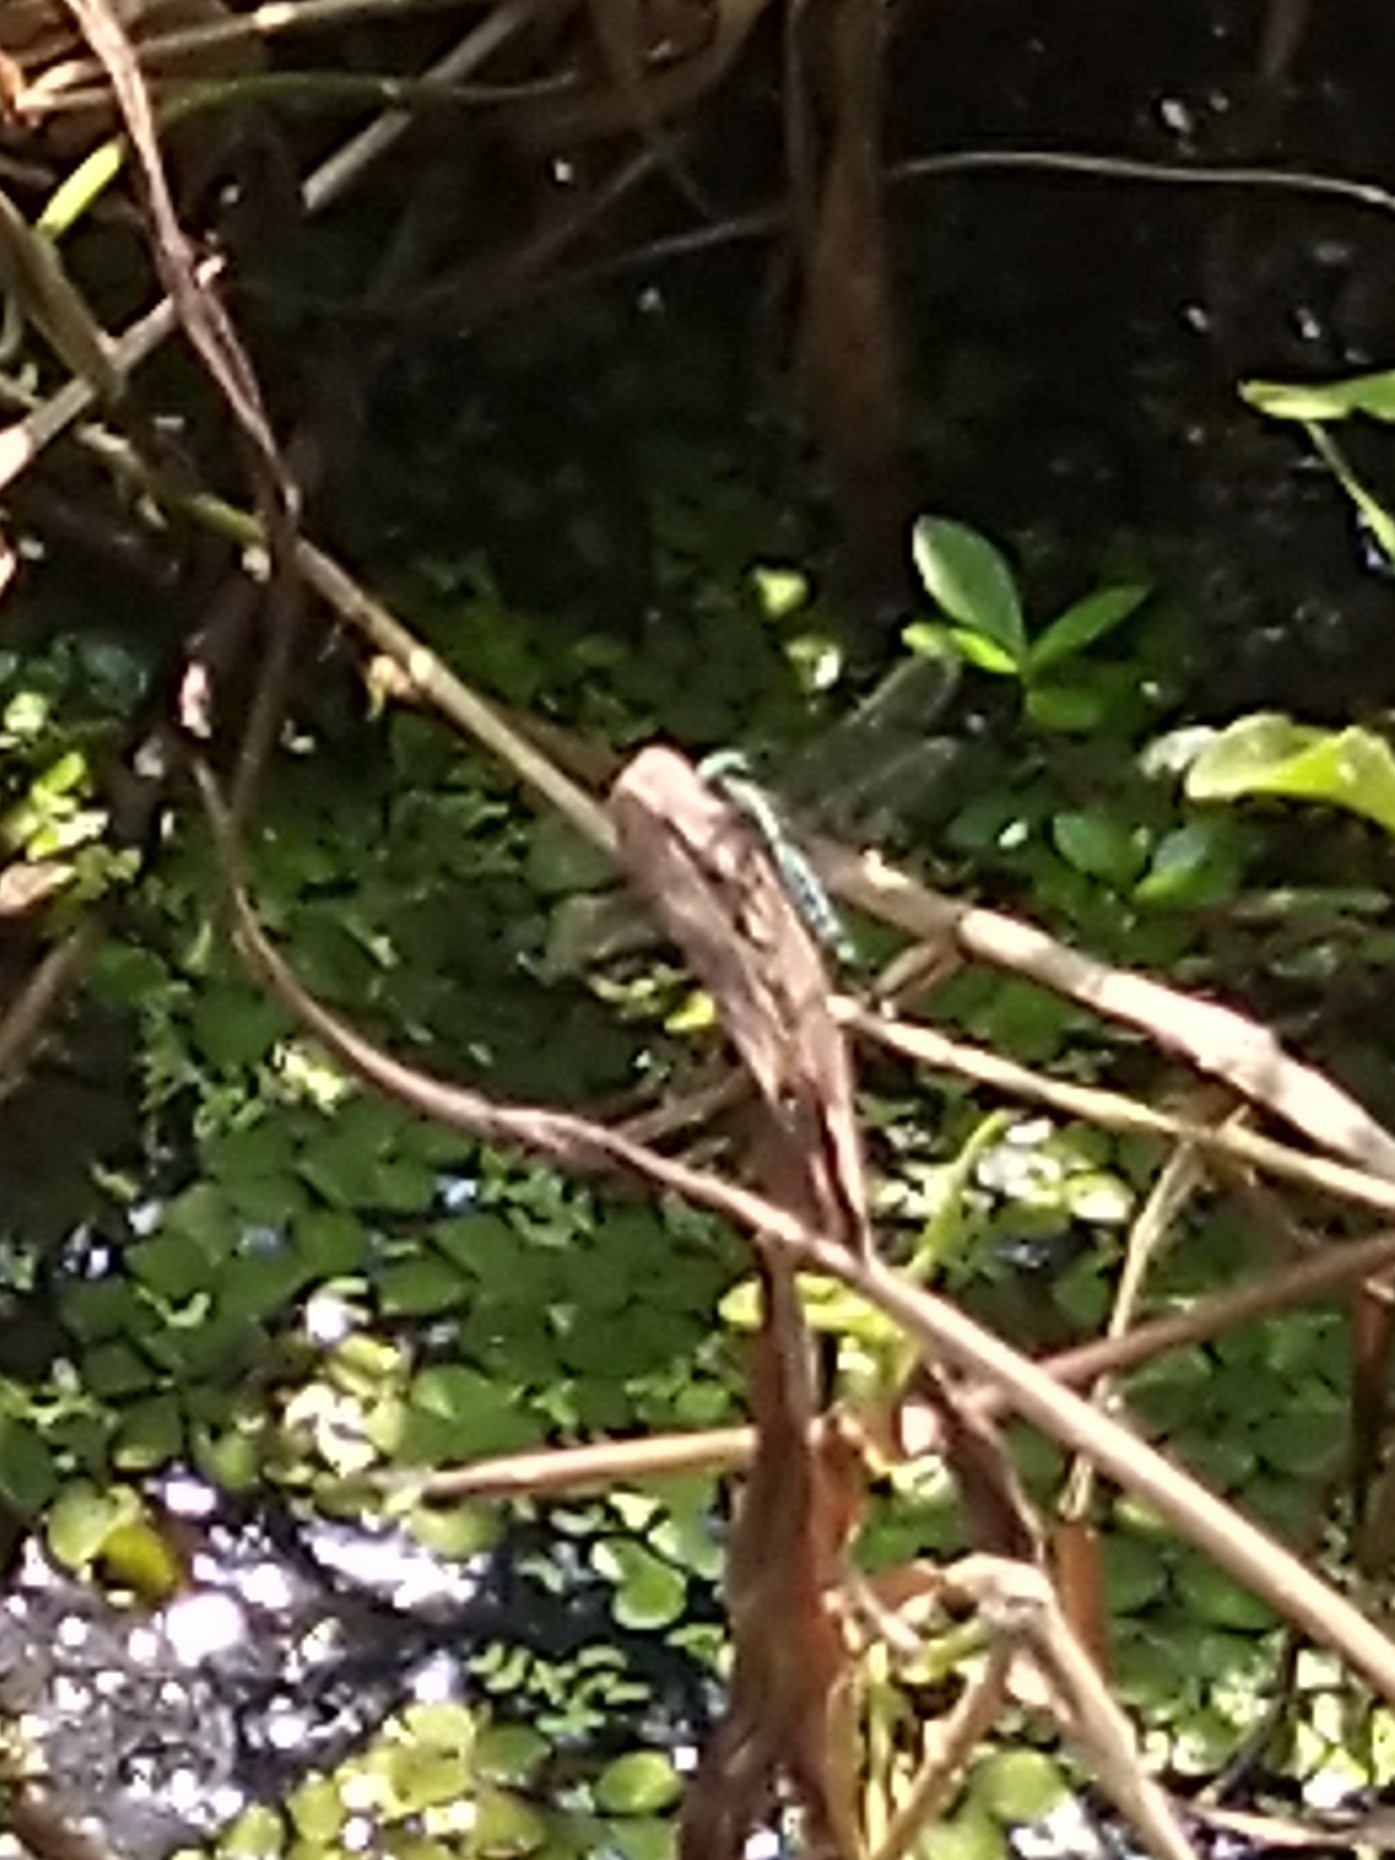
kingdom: Animalia
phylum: Arthropoda
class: Insecta
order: Odonata
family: Libellulidae
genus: Acisoma
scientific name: Acisoma panorpoides
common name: Asian pintail
